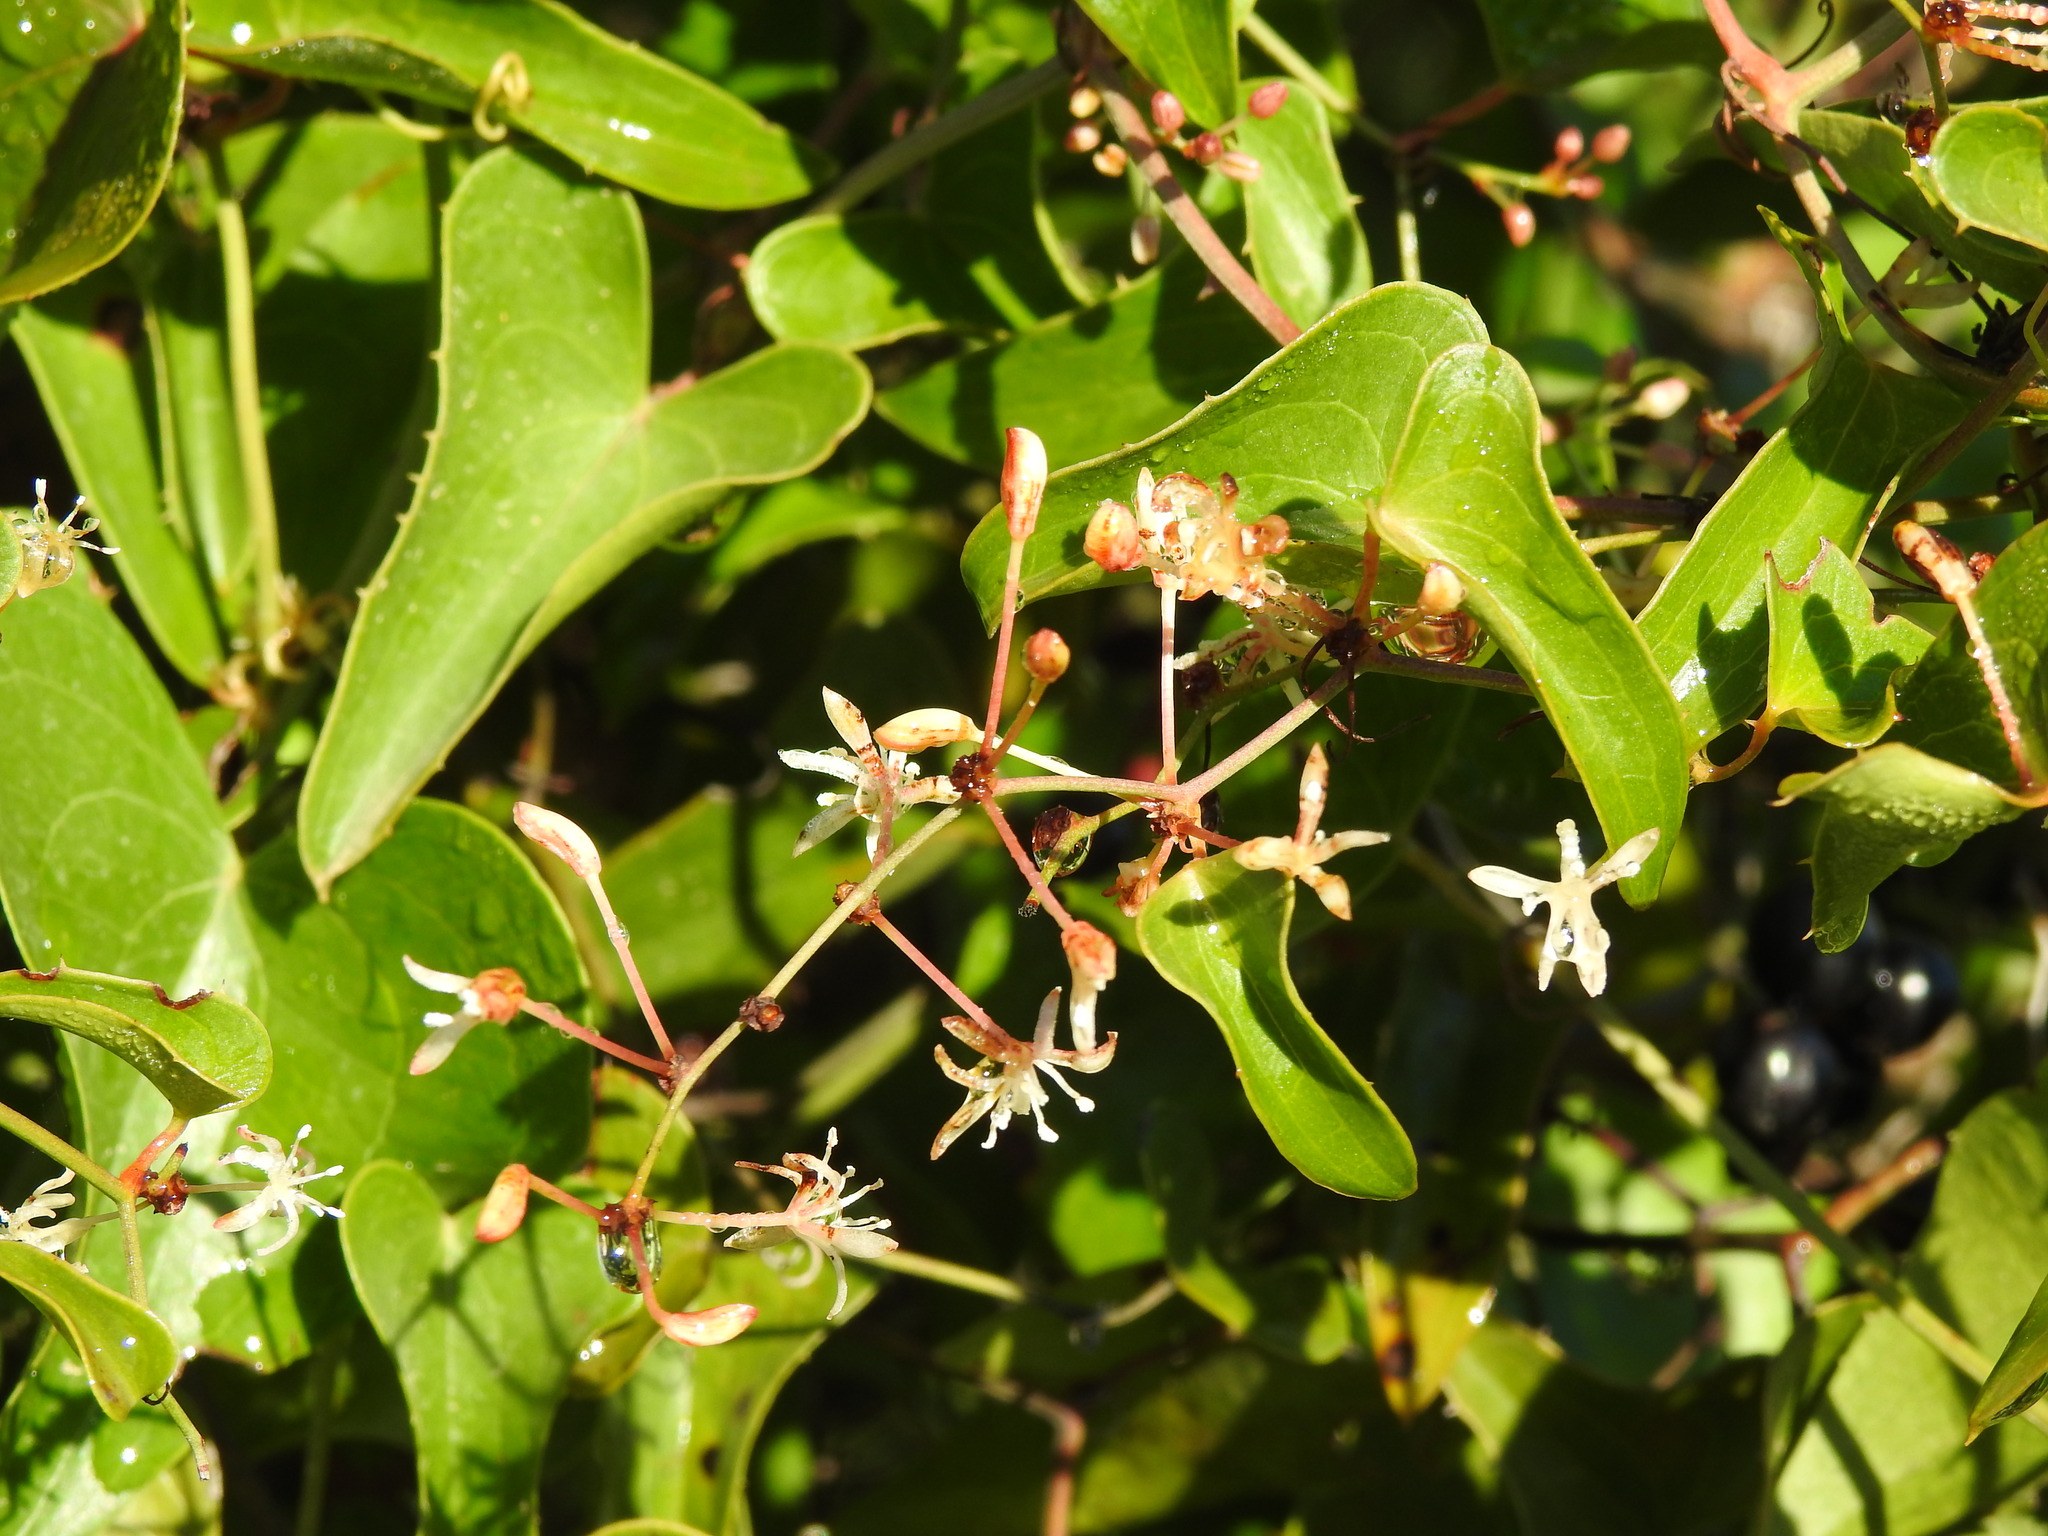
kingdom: Plantae
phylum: Tracheophyta
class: Liliopsida
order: Liliales
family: Smilacaceae
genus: Smilax
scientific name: Smilax aspera
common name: Common smilax
